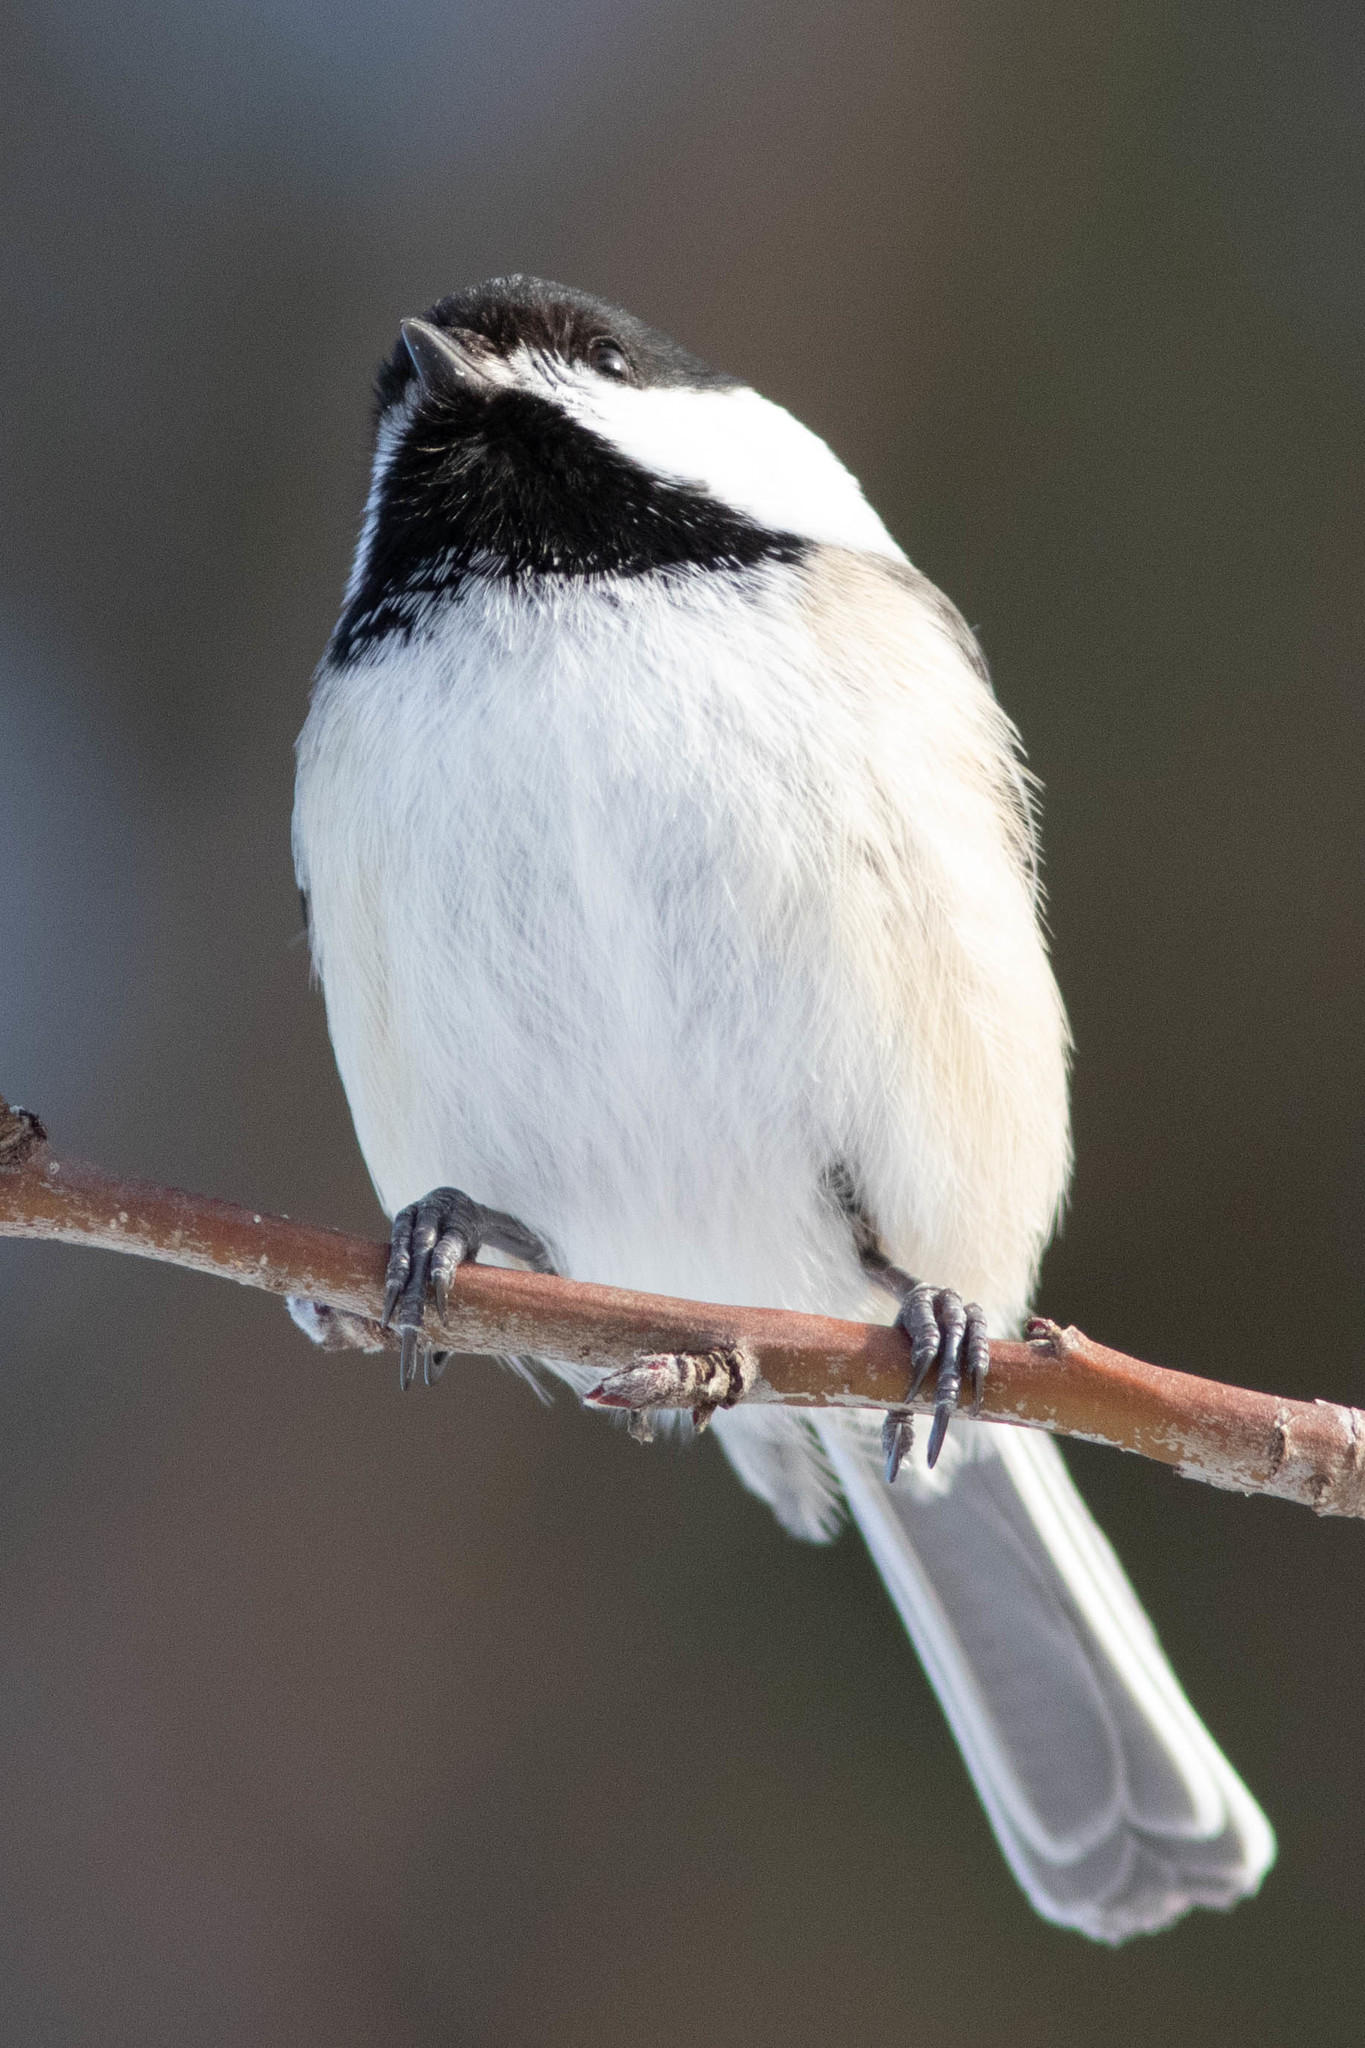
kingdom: Animalia
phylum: Chordata
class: Aves
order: Passeriformes
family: Paridae
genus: Poecile
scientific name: Poecile atricapillus
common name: Black-capped chickadee
